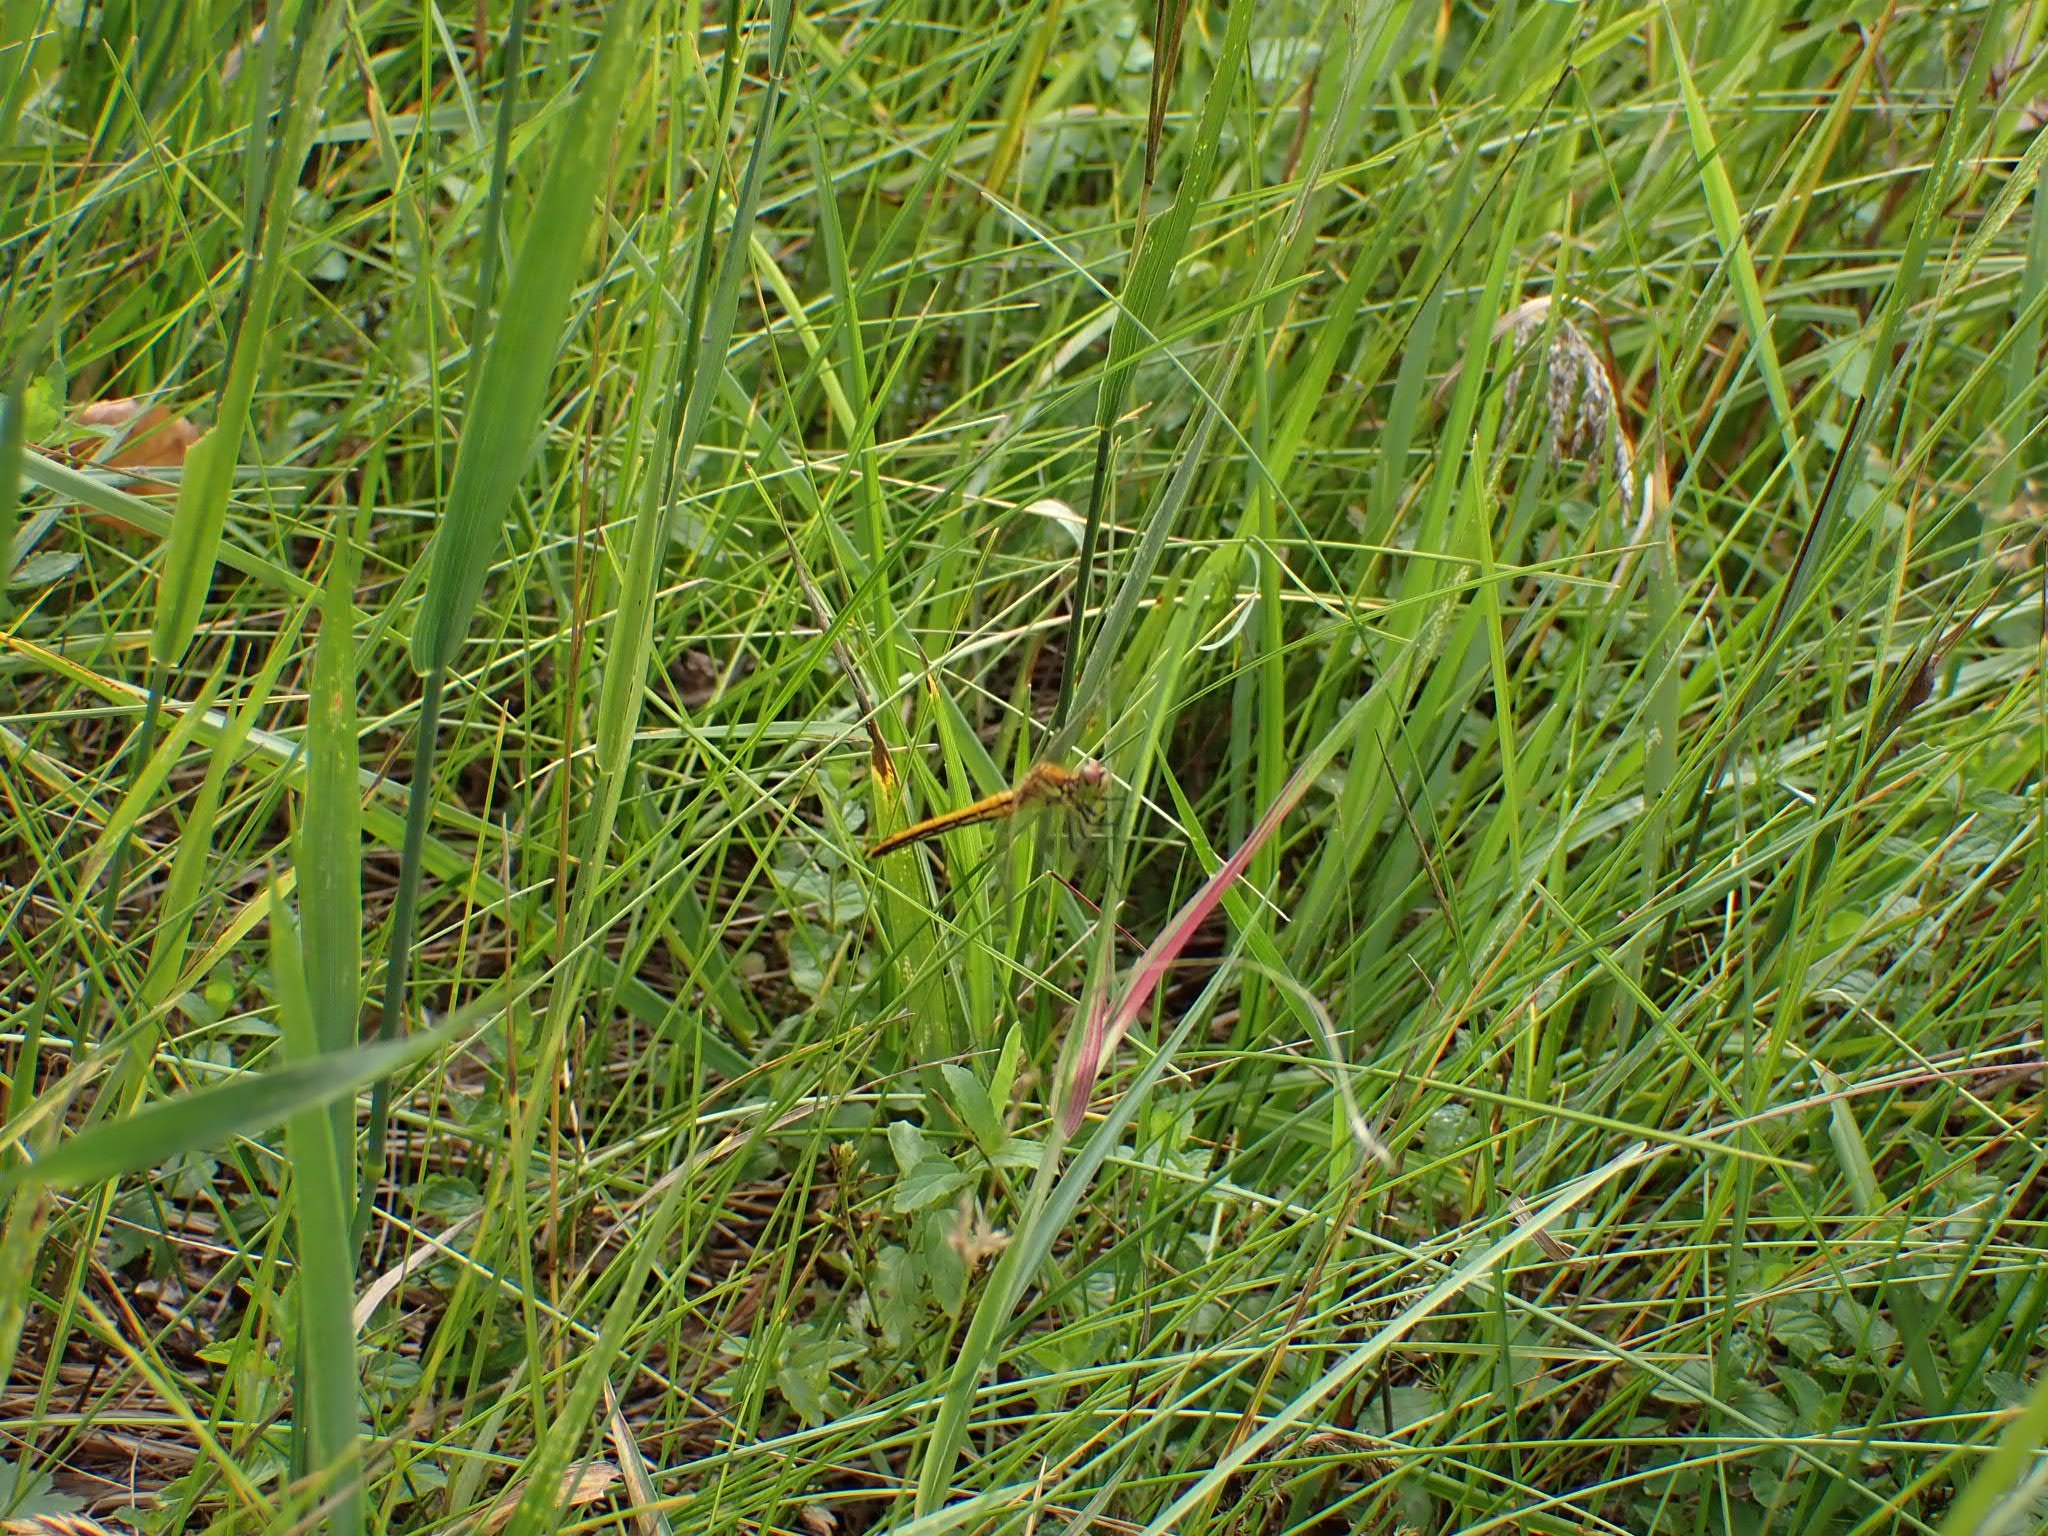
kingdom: Animalia
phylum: Arthropoda
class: Insecta
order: Odonata
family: Libellulidae
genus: Sympetrum
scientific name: Sympetrum flaveolum
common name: Yellow-winged darter
